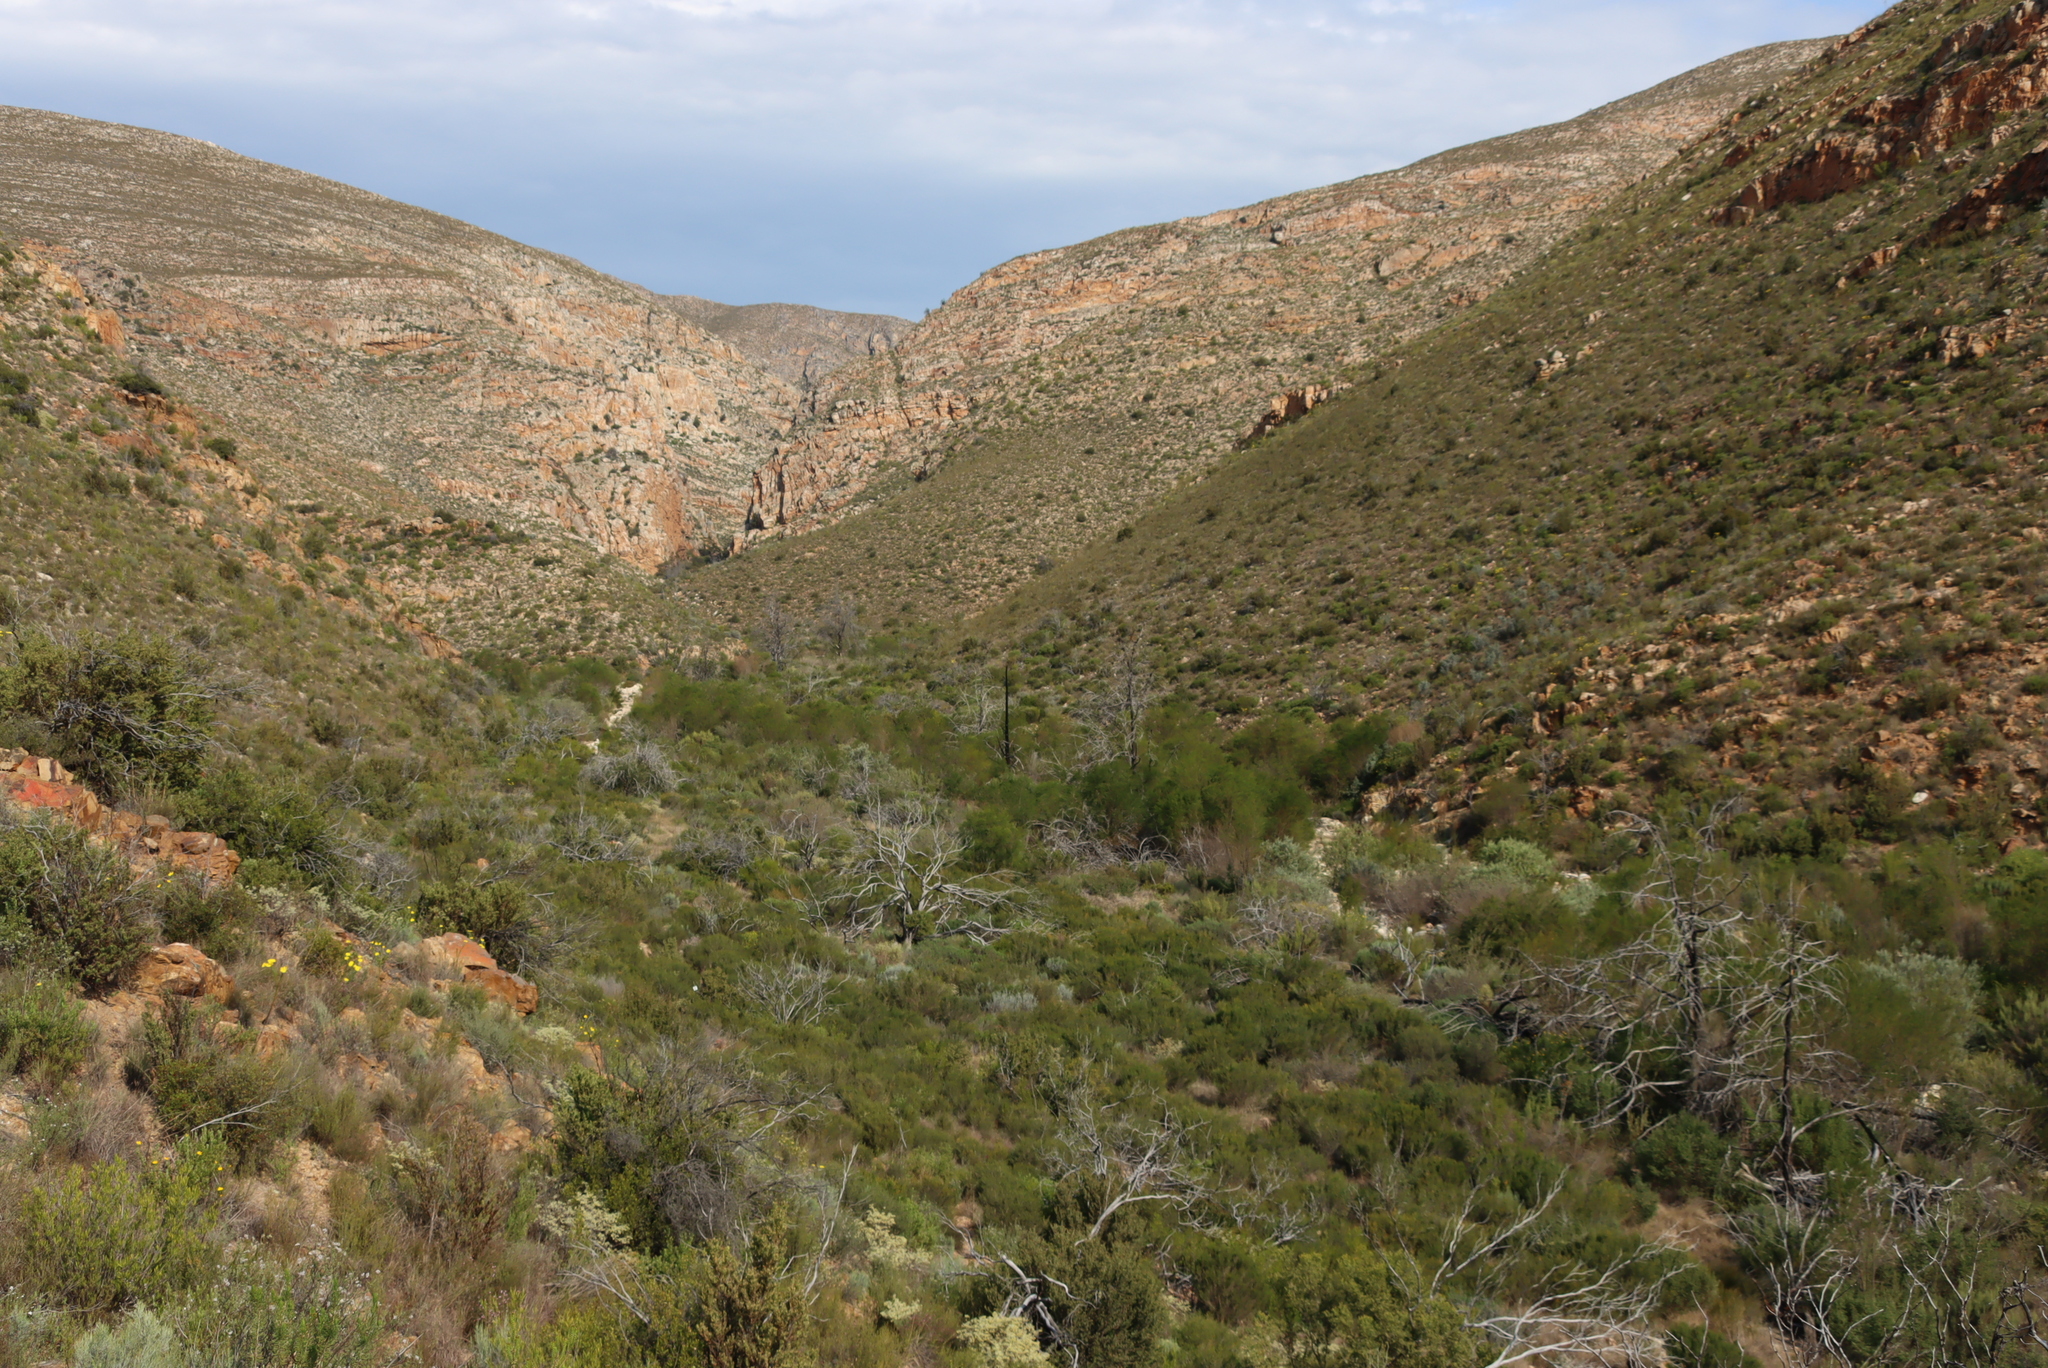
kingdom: Plantae
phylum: Tracheophyta
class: Pinopsida
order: Pinales
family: Cupressaceae
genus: Widdringtonia
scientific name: Widdringtonia schwarzii
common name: Baviaans cedar
